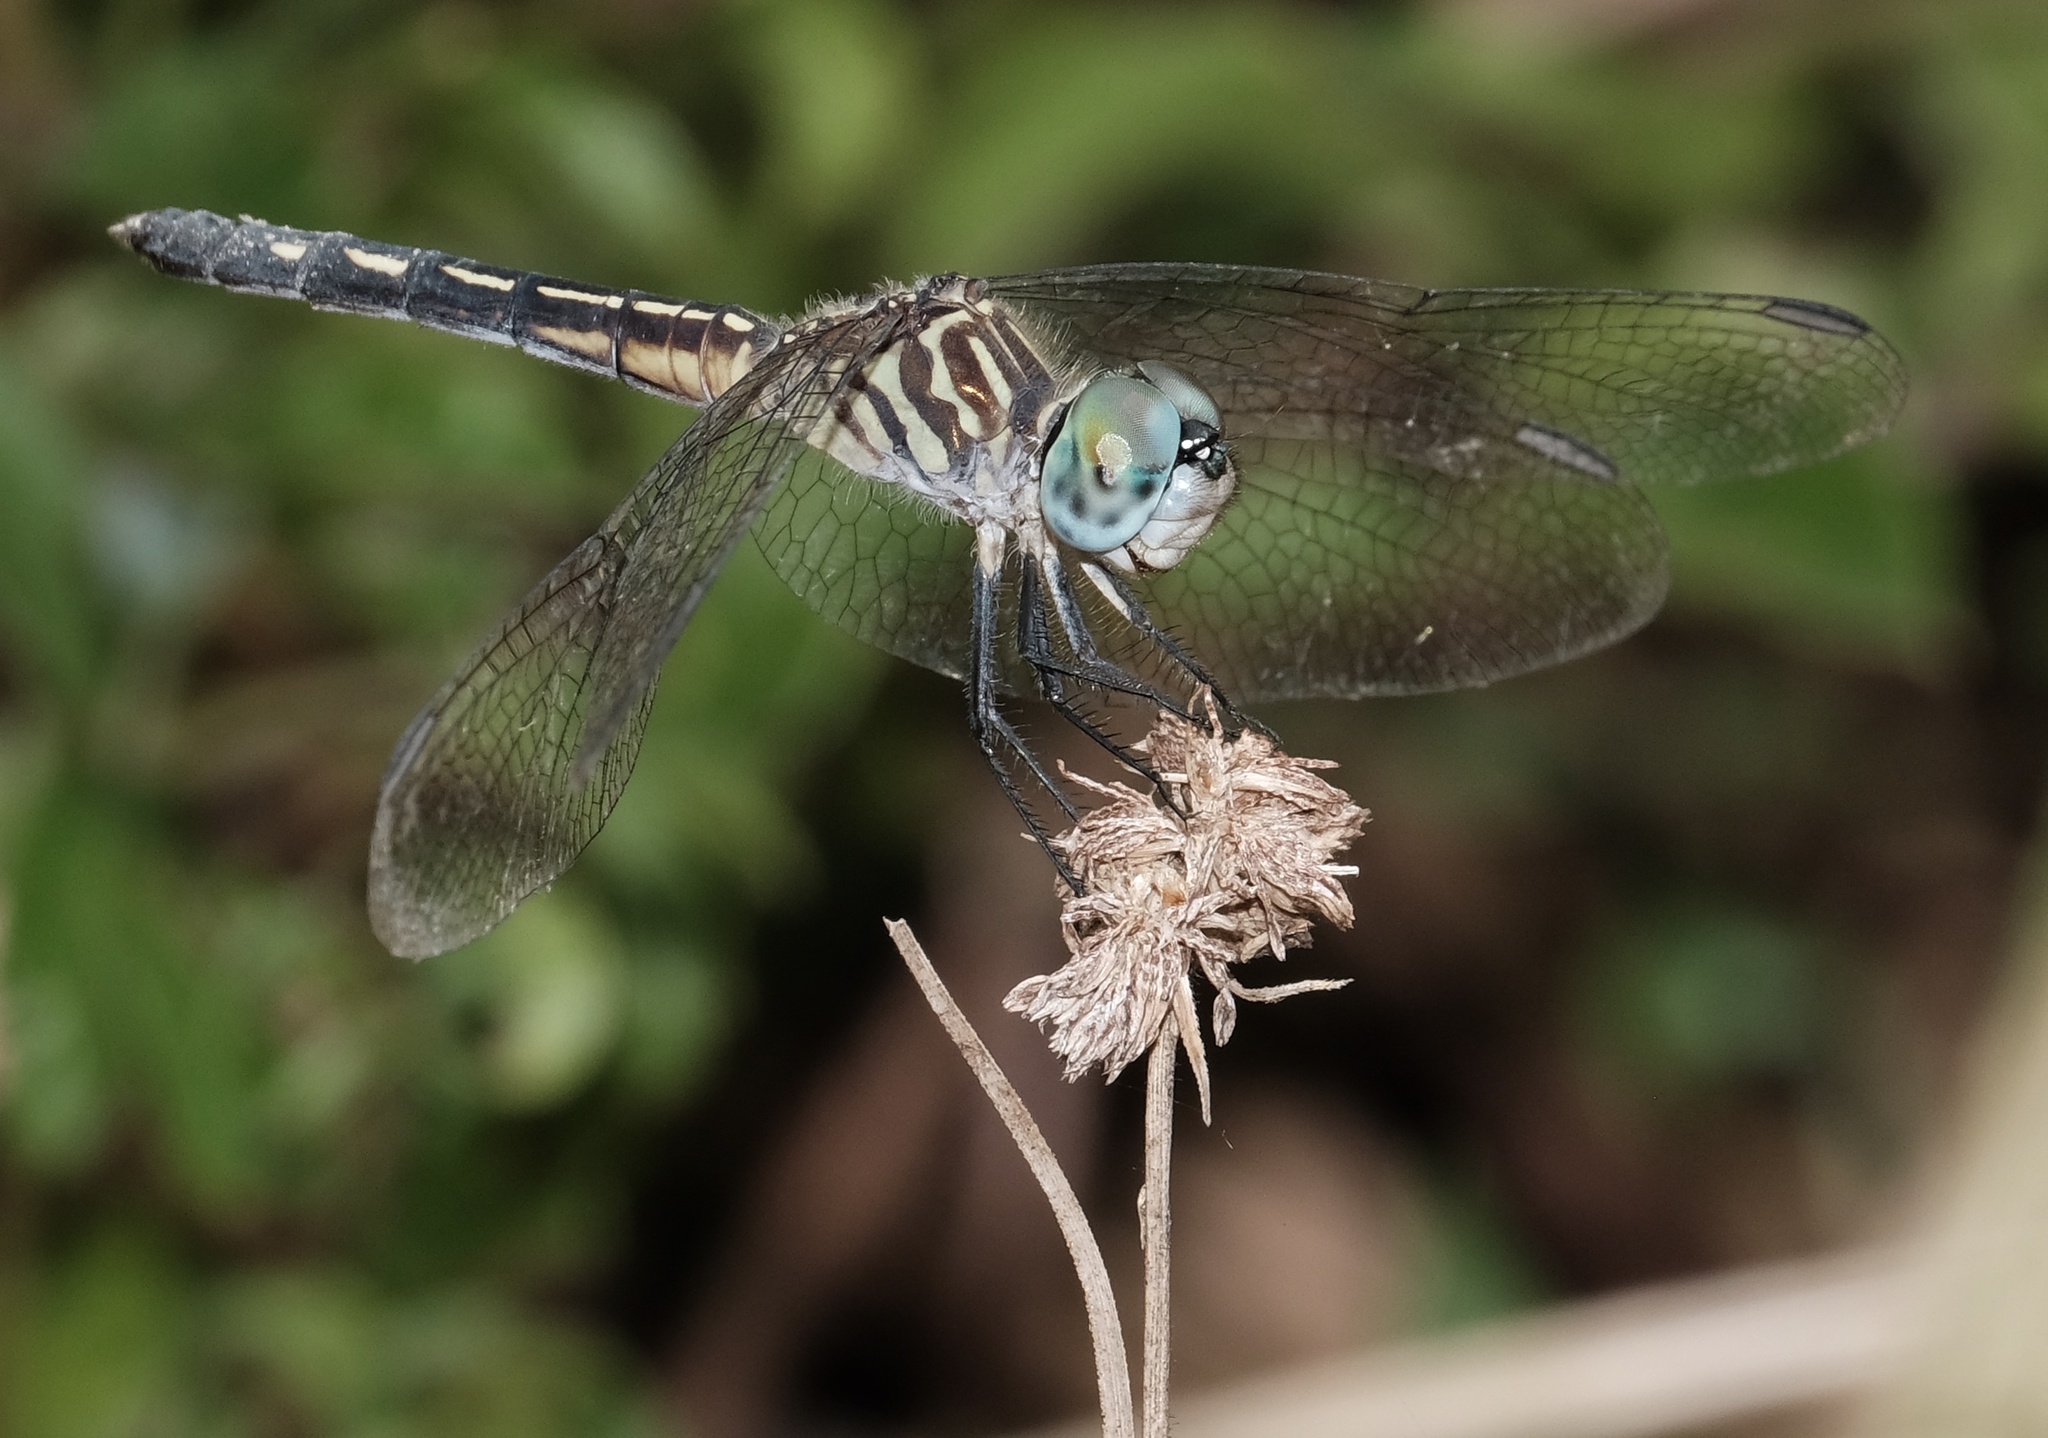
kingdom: Animalia
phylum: Arthropoda
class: Insecta
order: Odonata
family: Libellulidae
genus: Pachydiplax
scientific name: Pachydiplax longipennis
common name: Blue dasher
